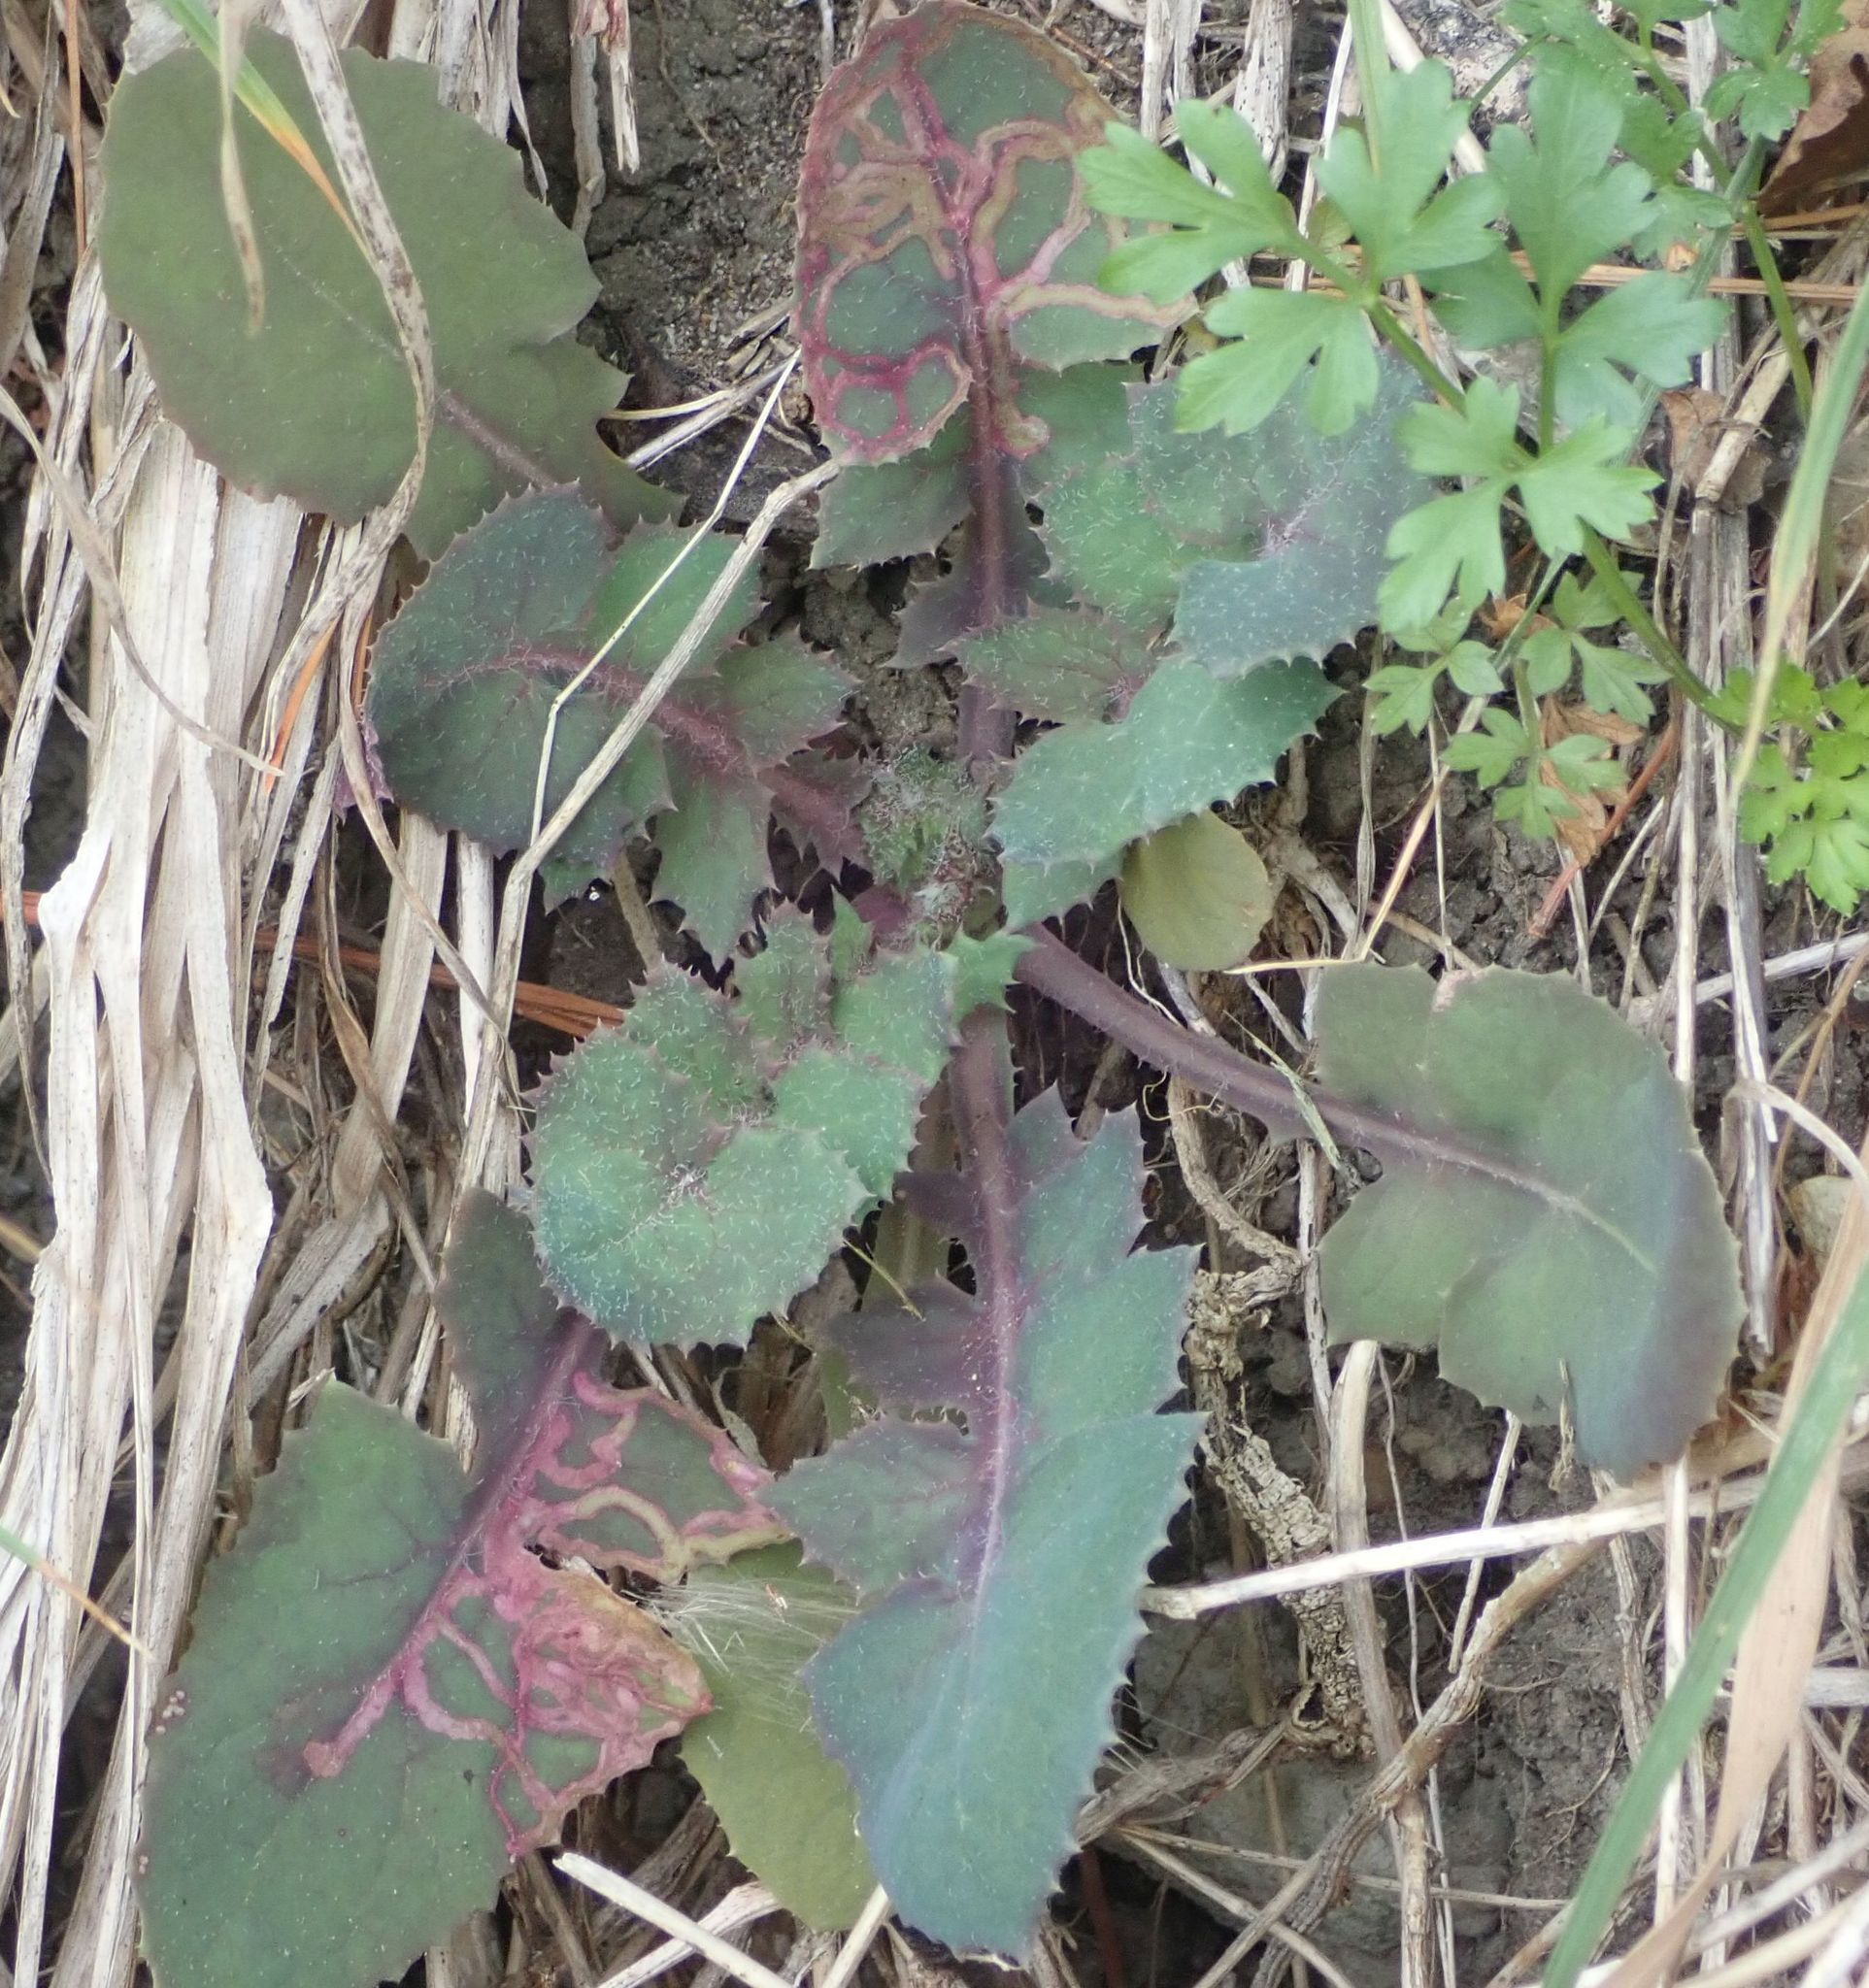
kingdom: Plantae
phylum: Tracheophyta
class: Magnoliopsida
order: Asterales
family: Asteraceae
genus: Sonchus
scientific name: Sonchus oleraceus
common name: Common sowthistle
